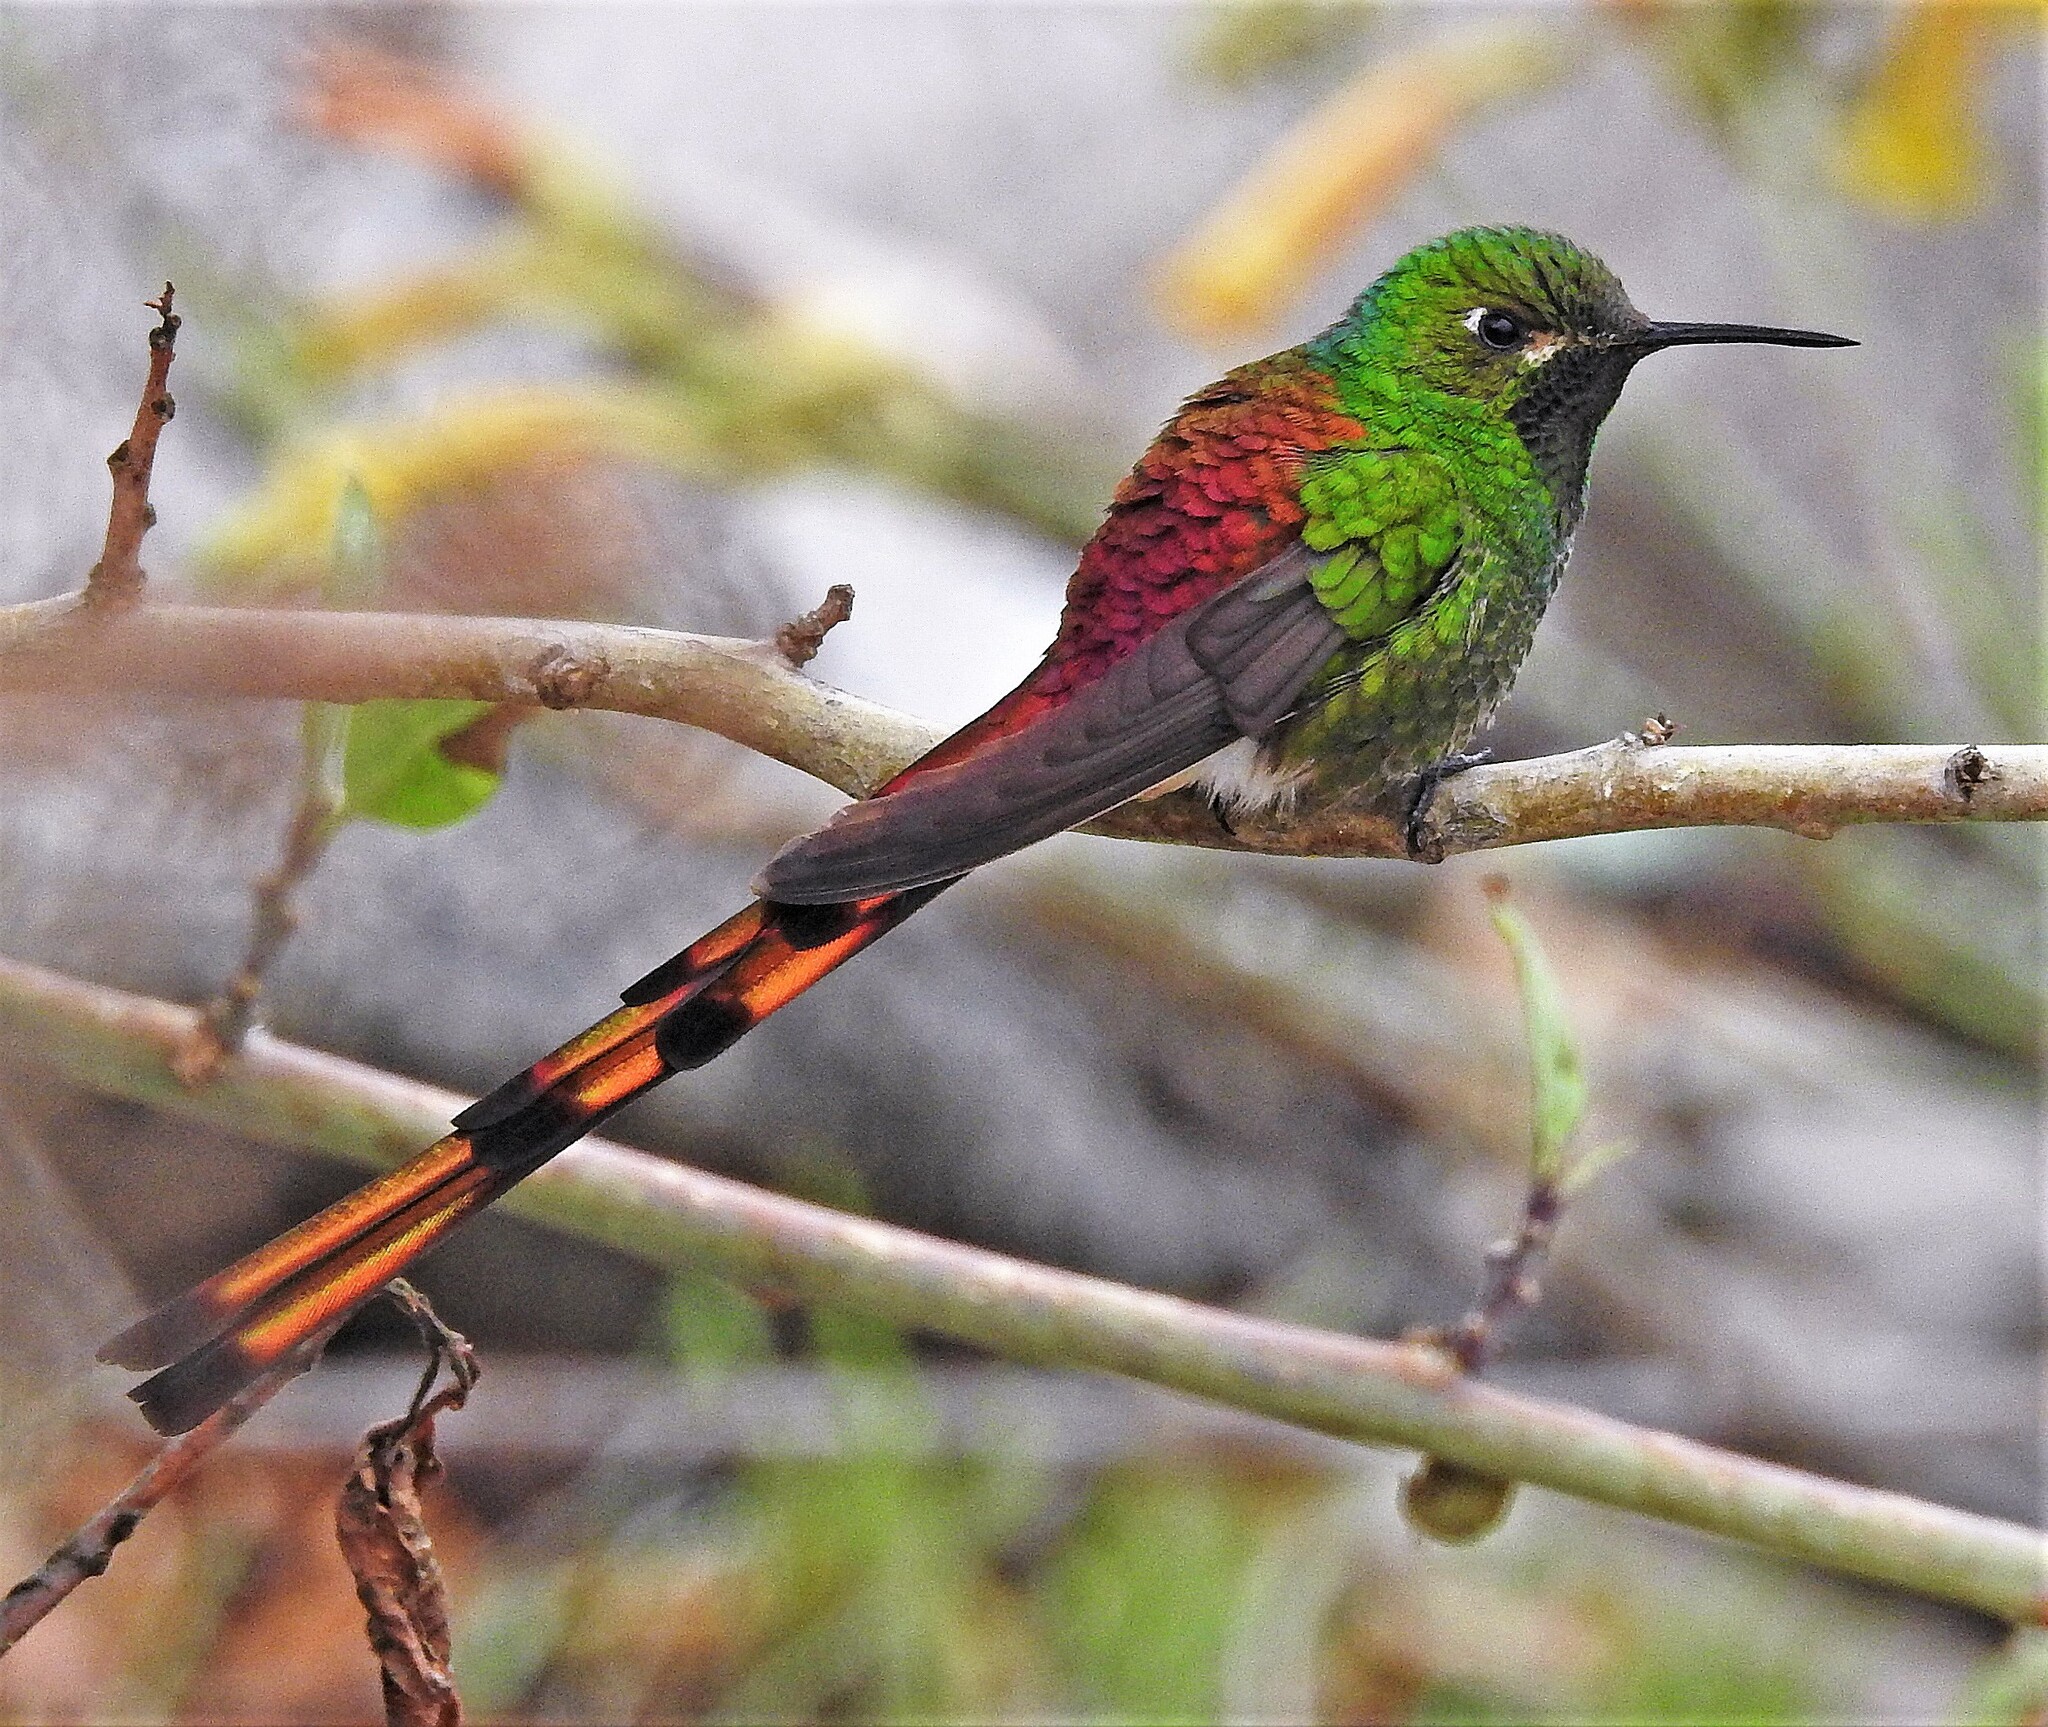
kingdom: Animalia
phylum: Chordata
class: Aves
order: Apodiformes
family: Trochilidae
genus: Sappho
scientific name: Sappho sparganurus
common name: Red-tailed comet
